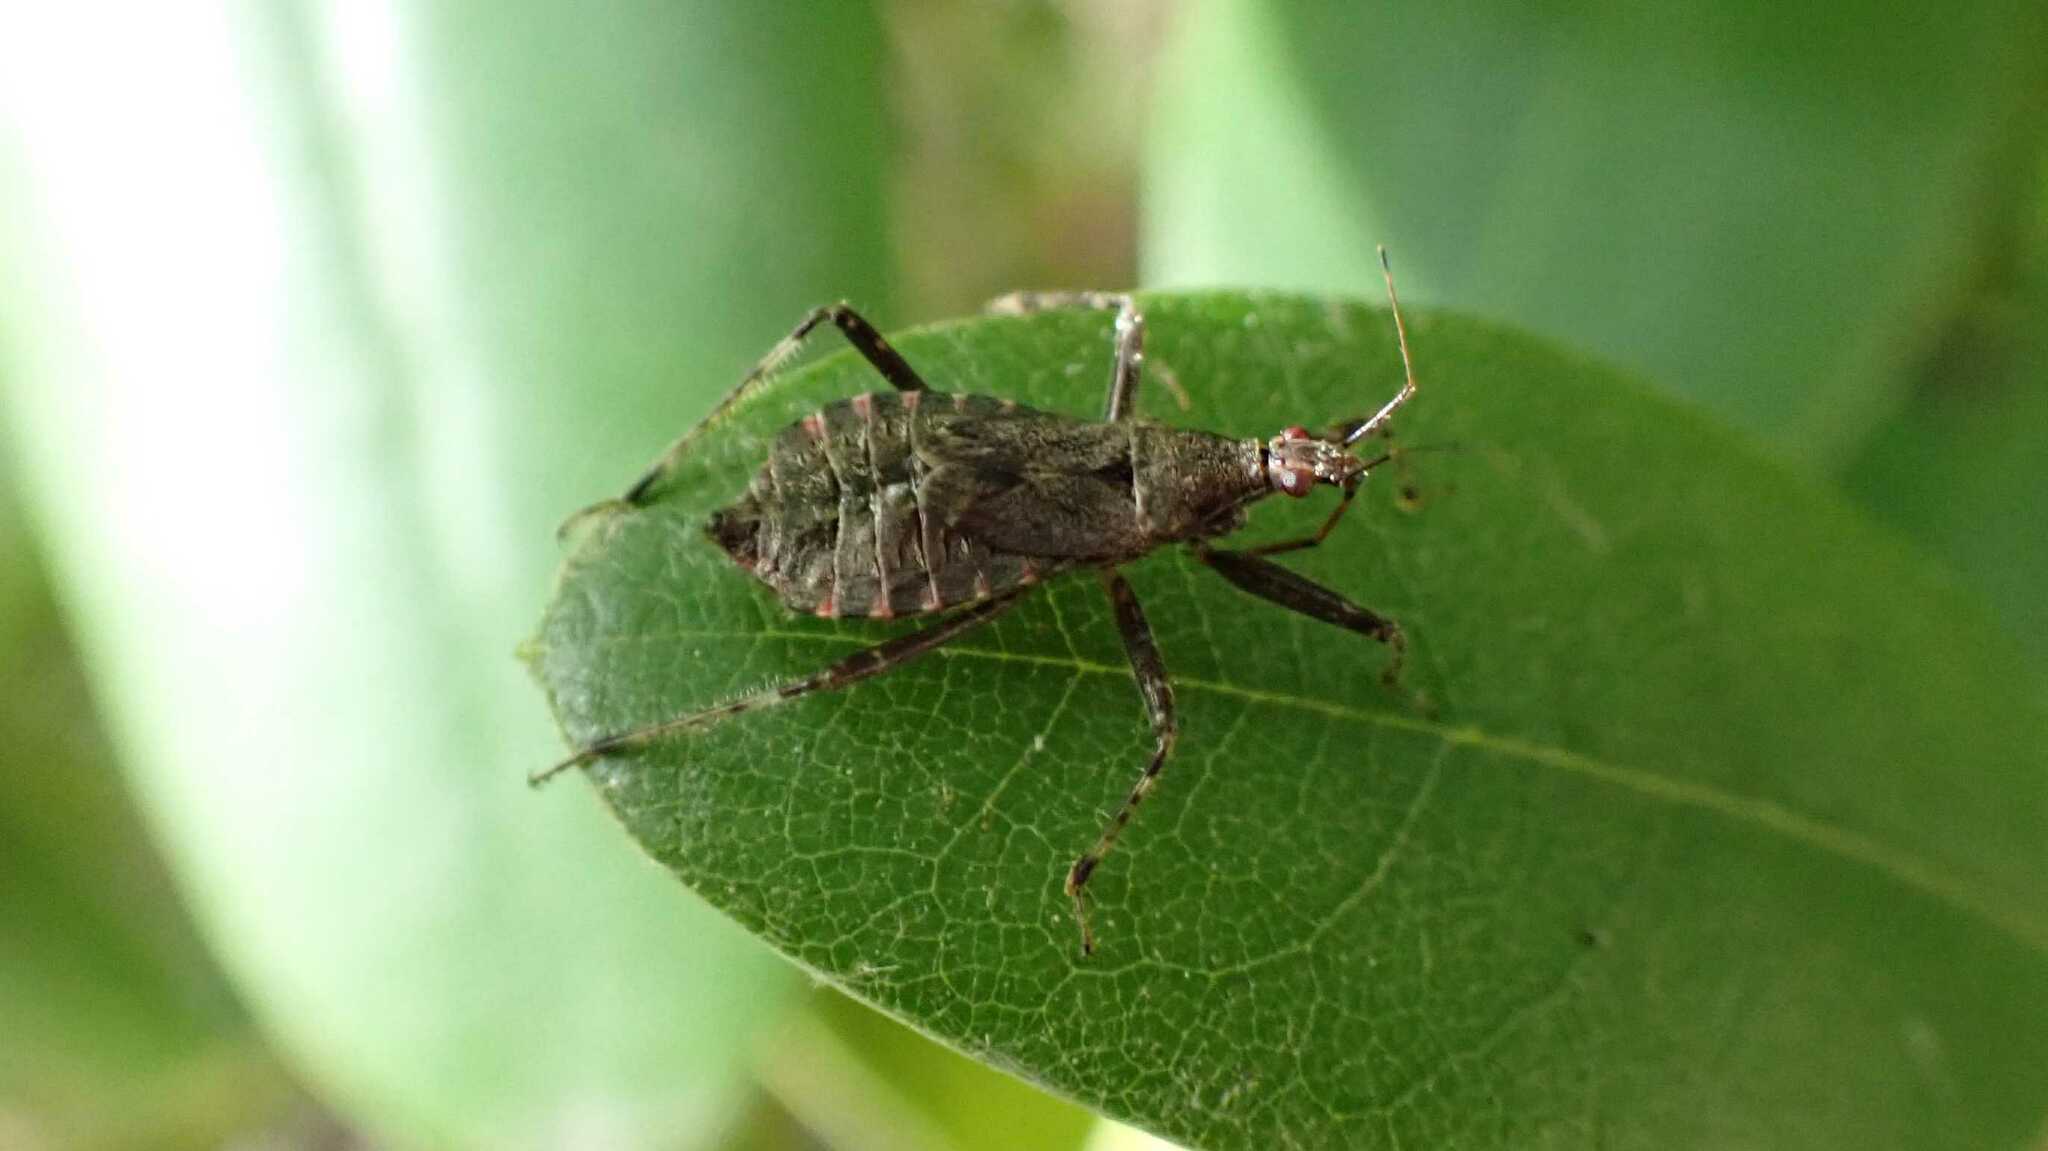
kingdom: Animalia
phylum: Arthropoda
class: Insecta
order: Hemiptera
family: Nabidae
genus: Himacerus
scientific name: Himacerus apterus
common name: Tree damsel bug
